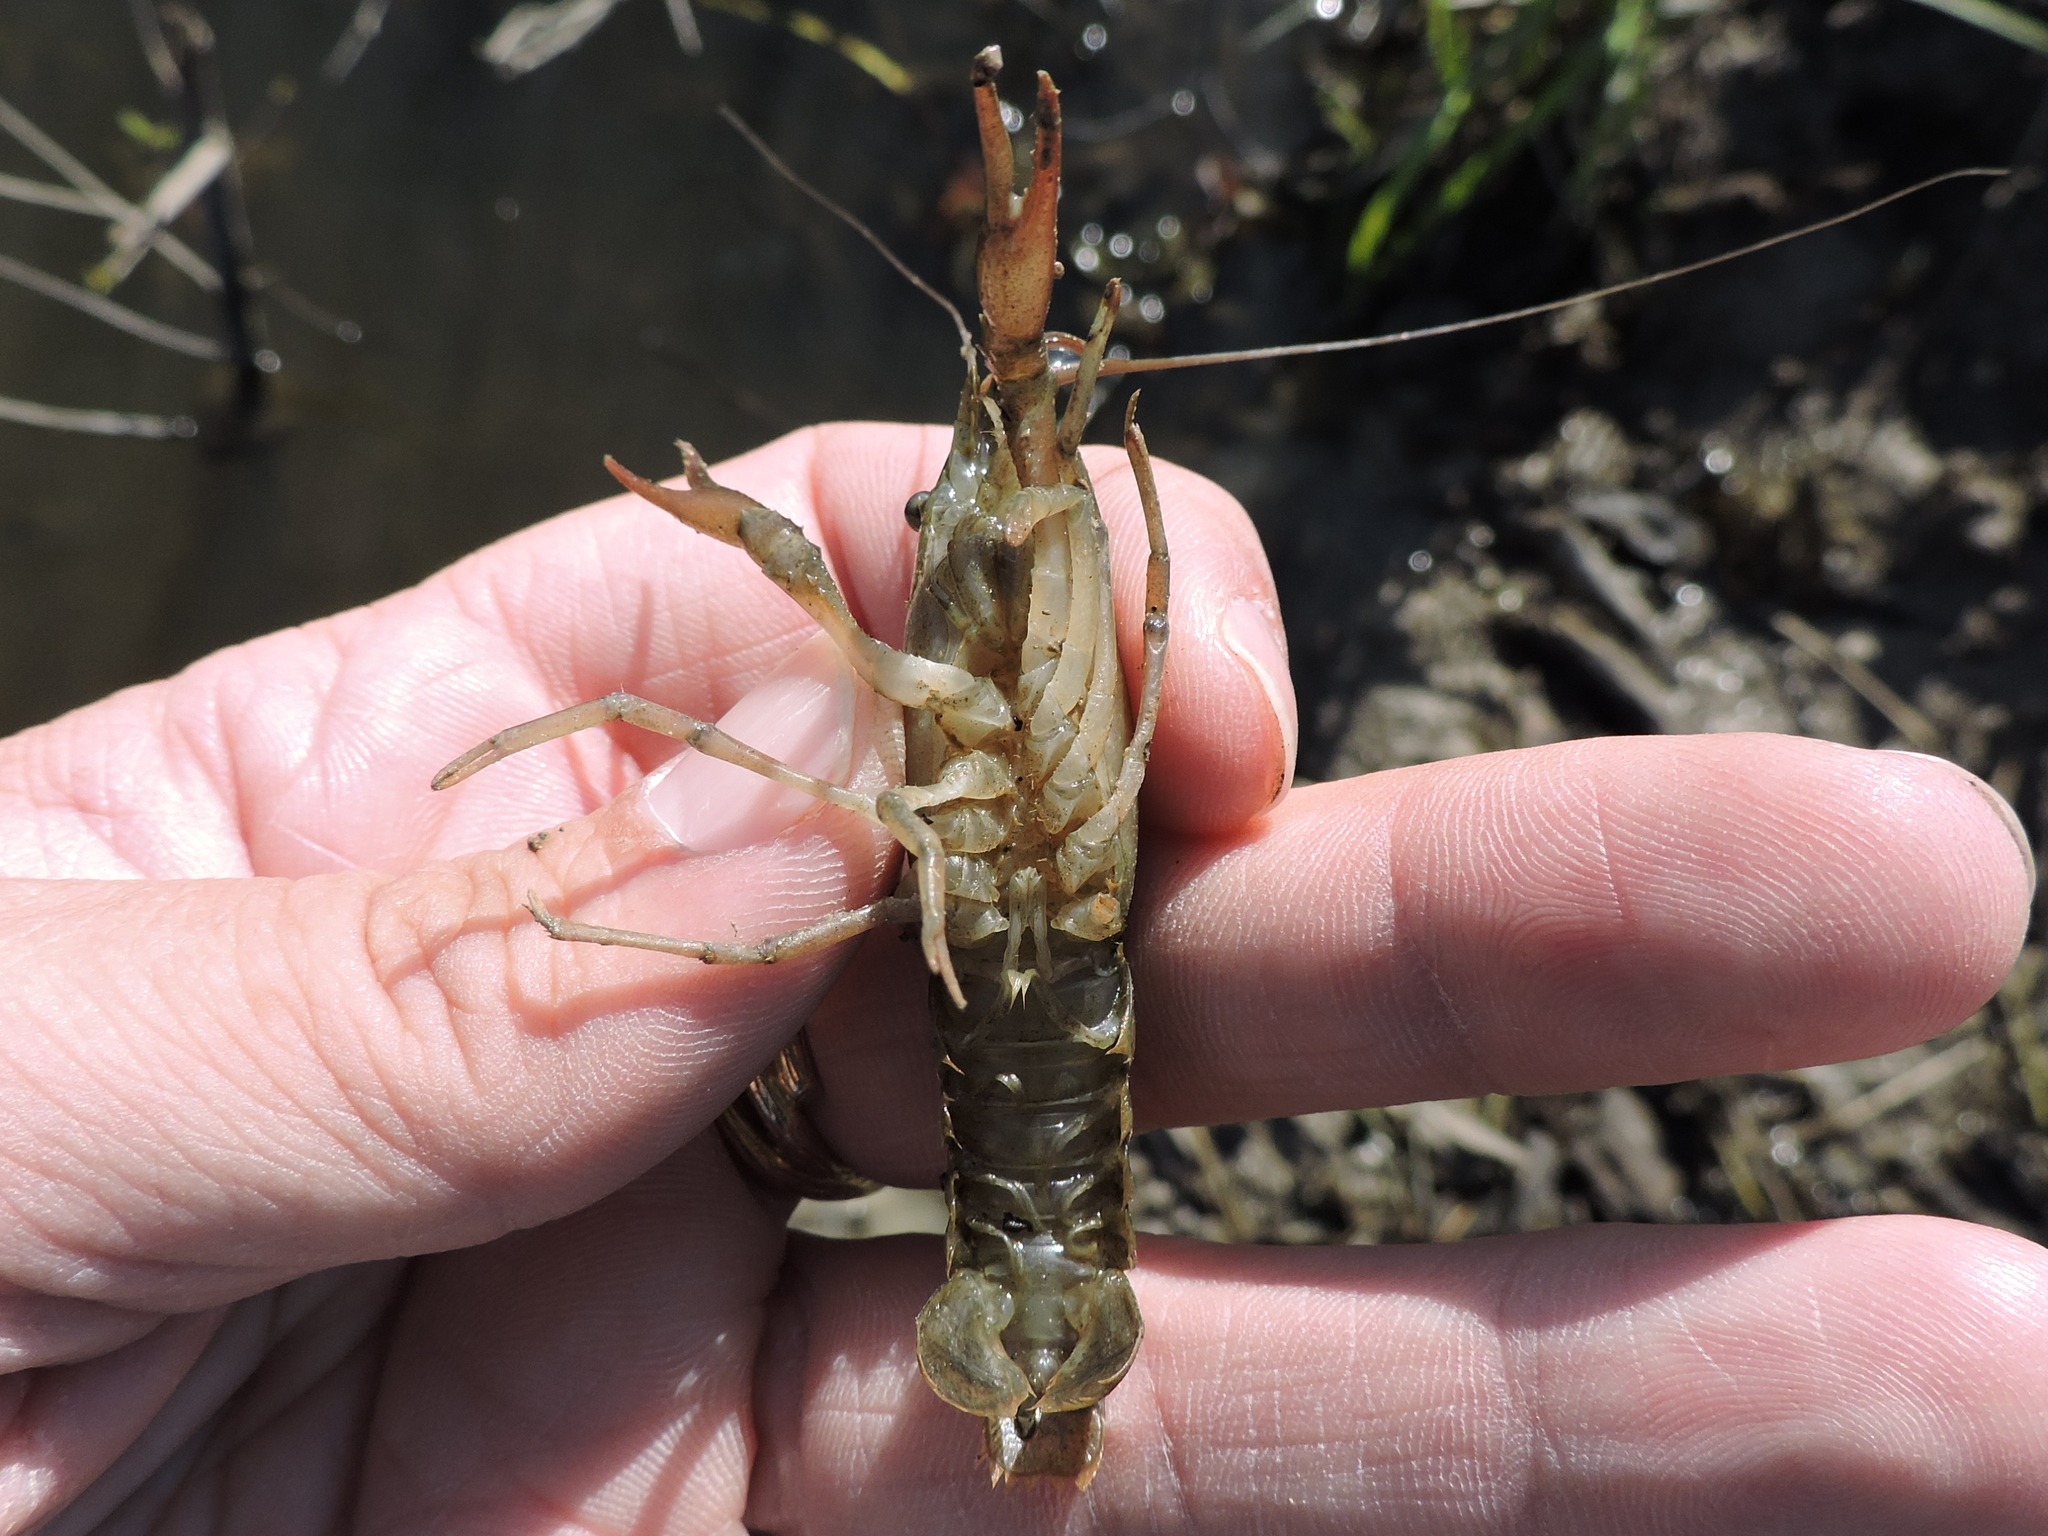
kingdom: Animalia
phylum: Arthropoda
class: Malacostraca
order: Decapoda
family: Cambaridae
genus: Procambarus
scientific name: Procambarus acutus
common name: White river crayfish
